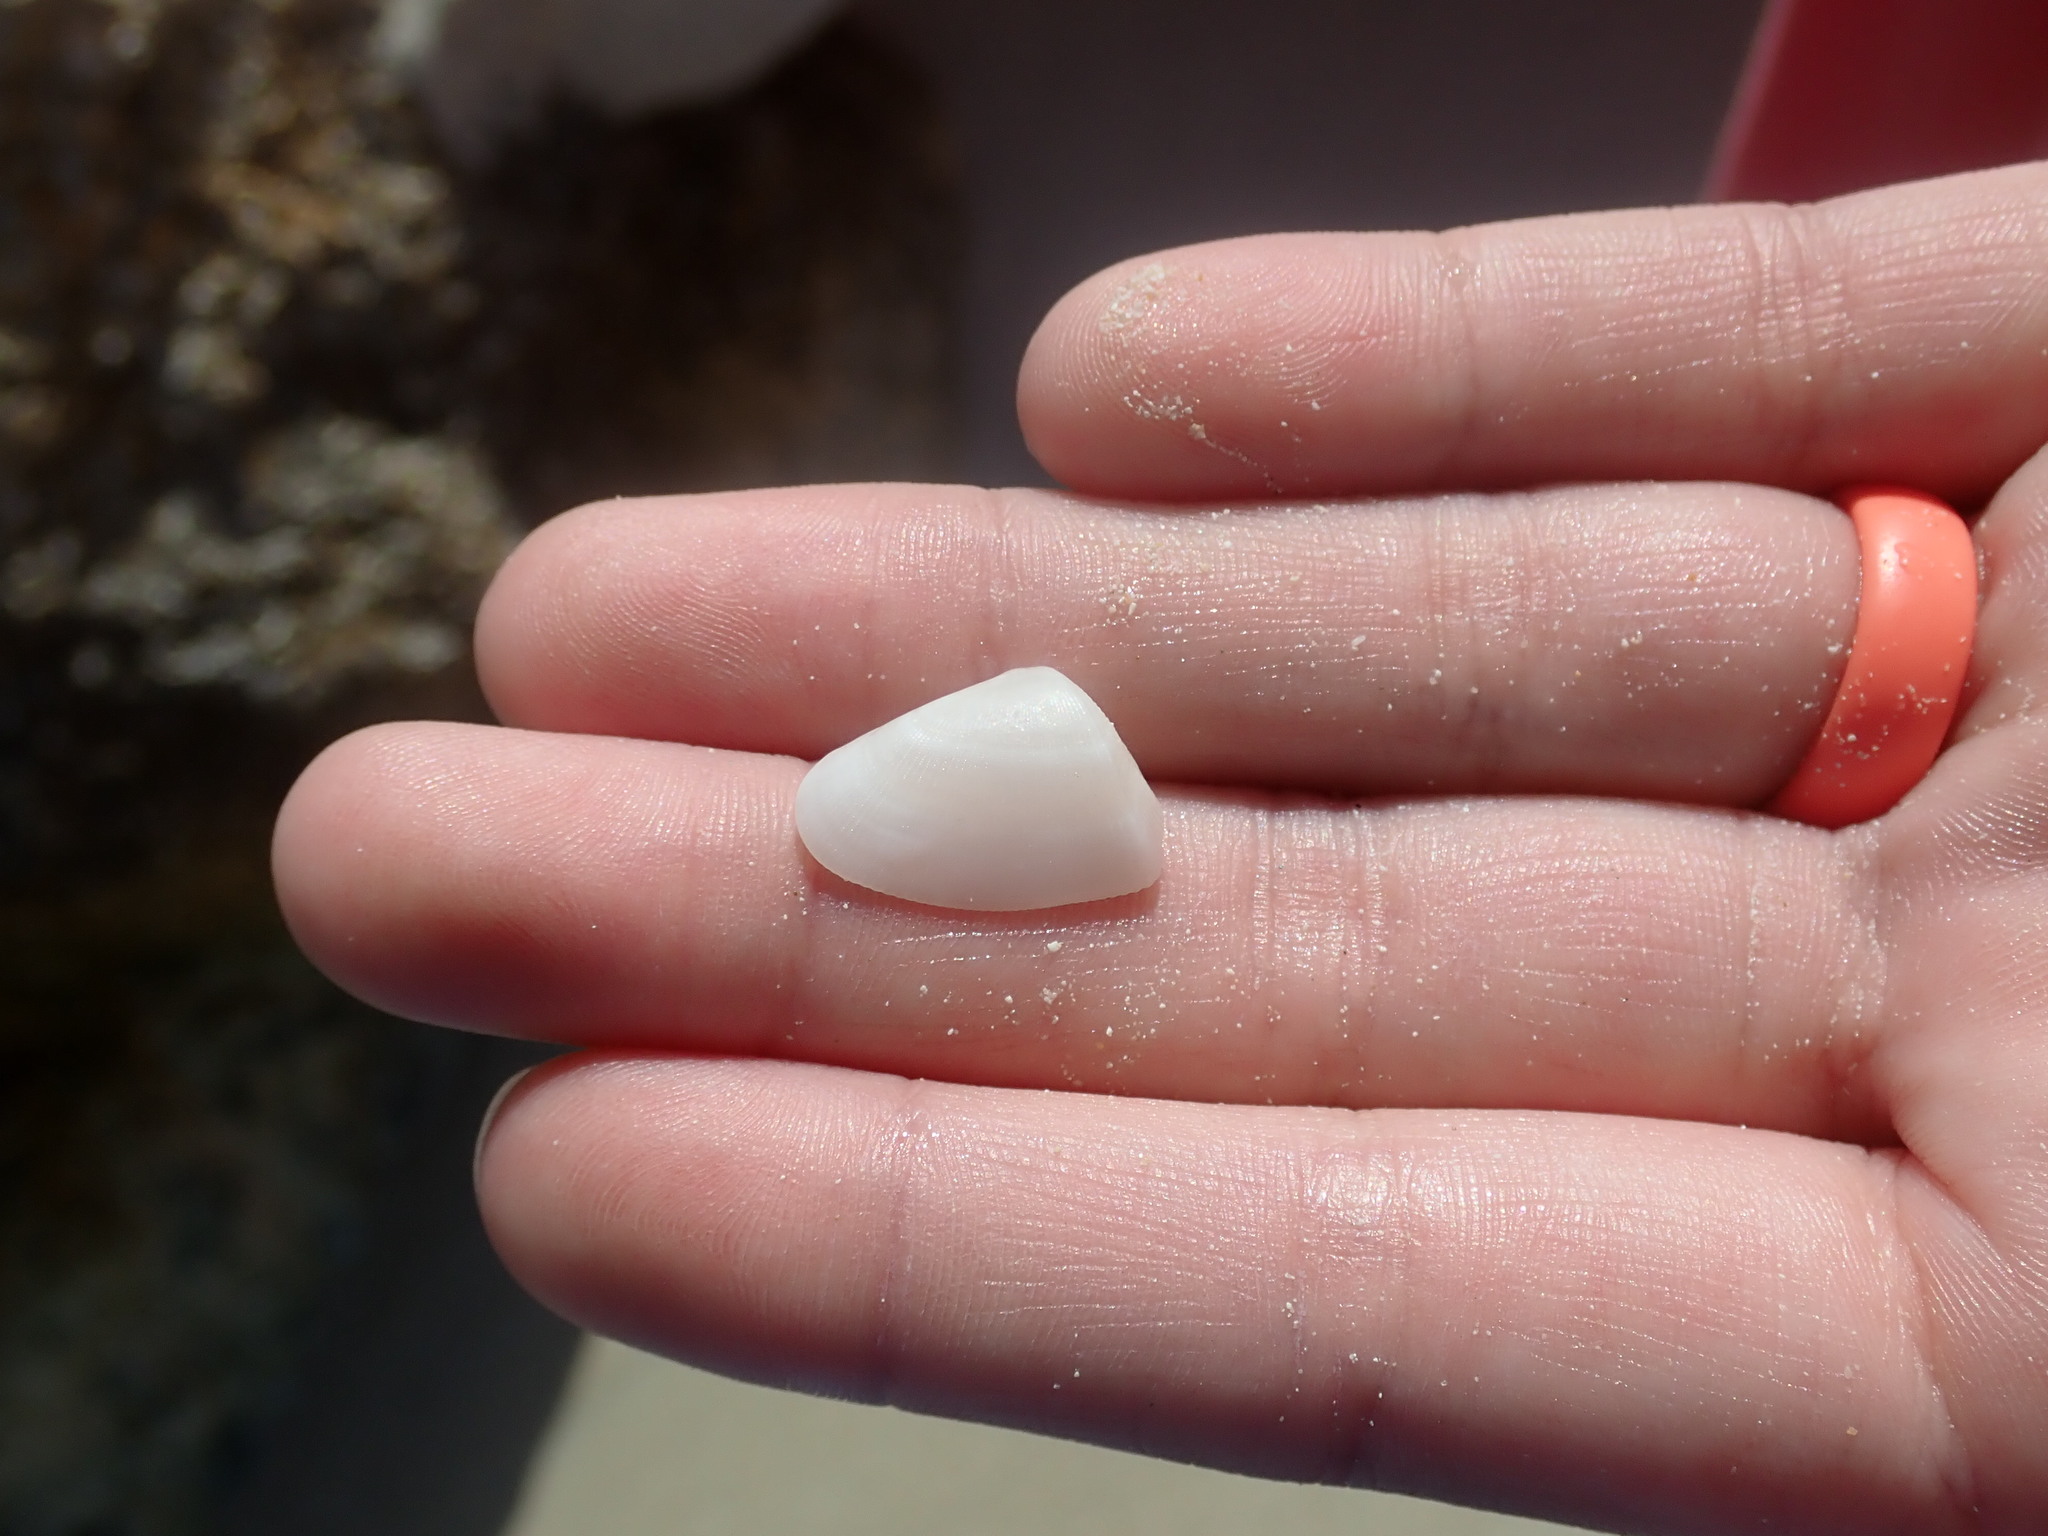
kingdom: Animalia
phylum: Mollusca
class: Bivalvia
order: Cardiida
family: Donacidae
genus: Donax
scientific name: Donax denticulatus
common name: Common caribbean coquina
